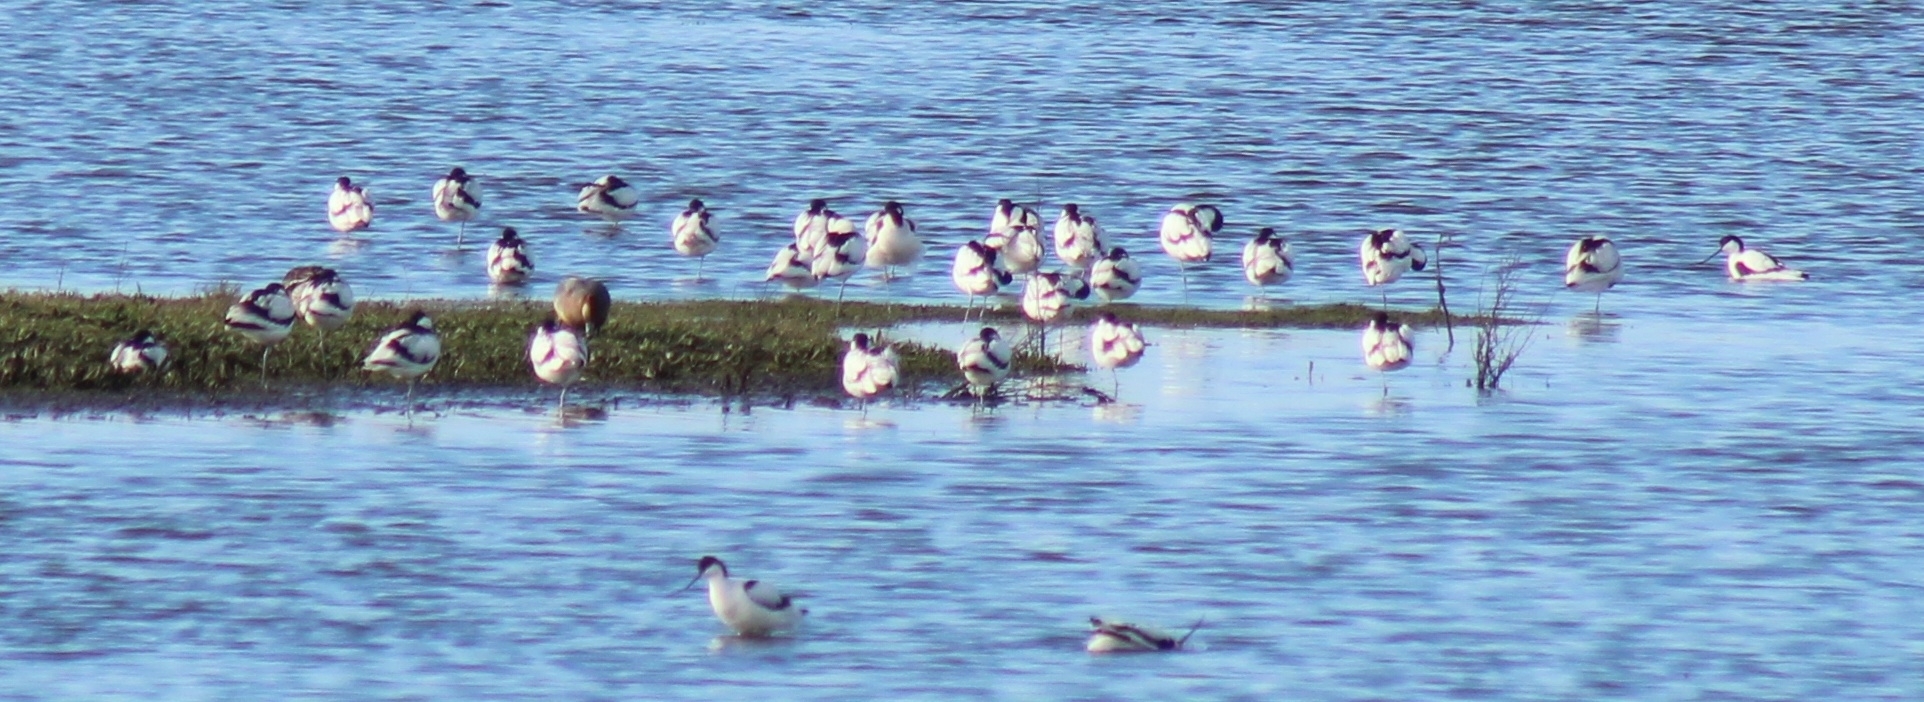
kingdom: Animalia
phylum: Chordata
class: Aves
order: Charadriiformes
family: Recurvirostridae
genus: Recurvirostra
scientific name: Recurvirostra avosetta
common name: Pied avocet
